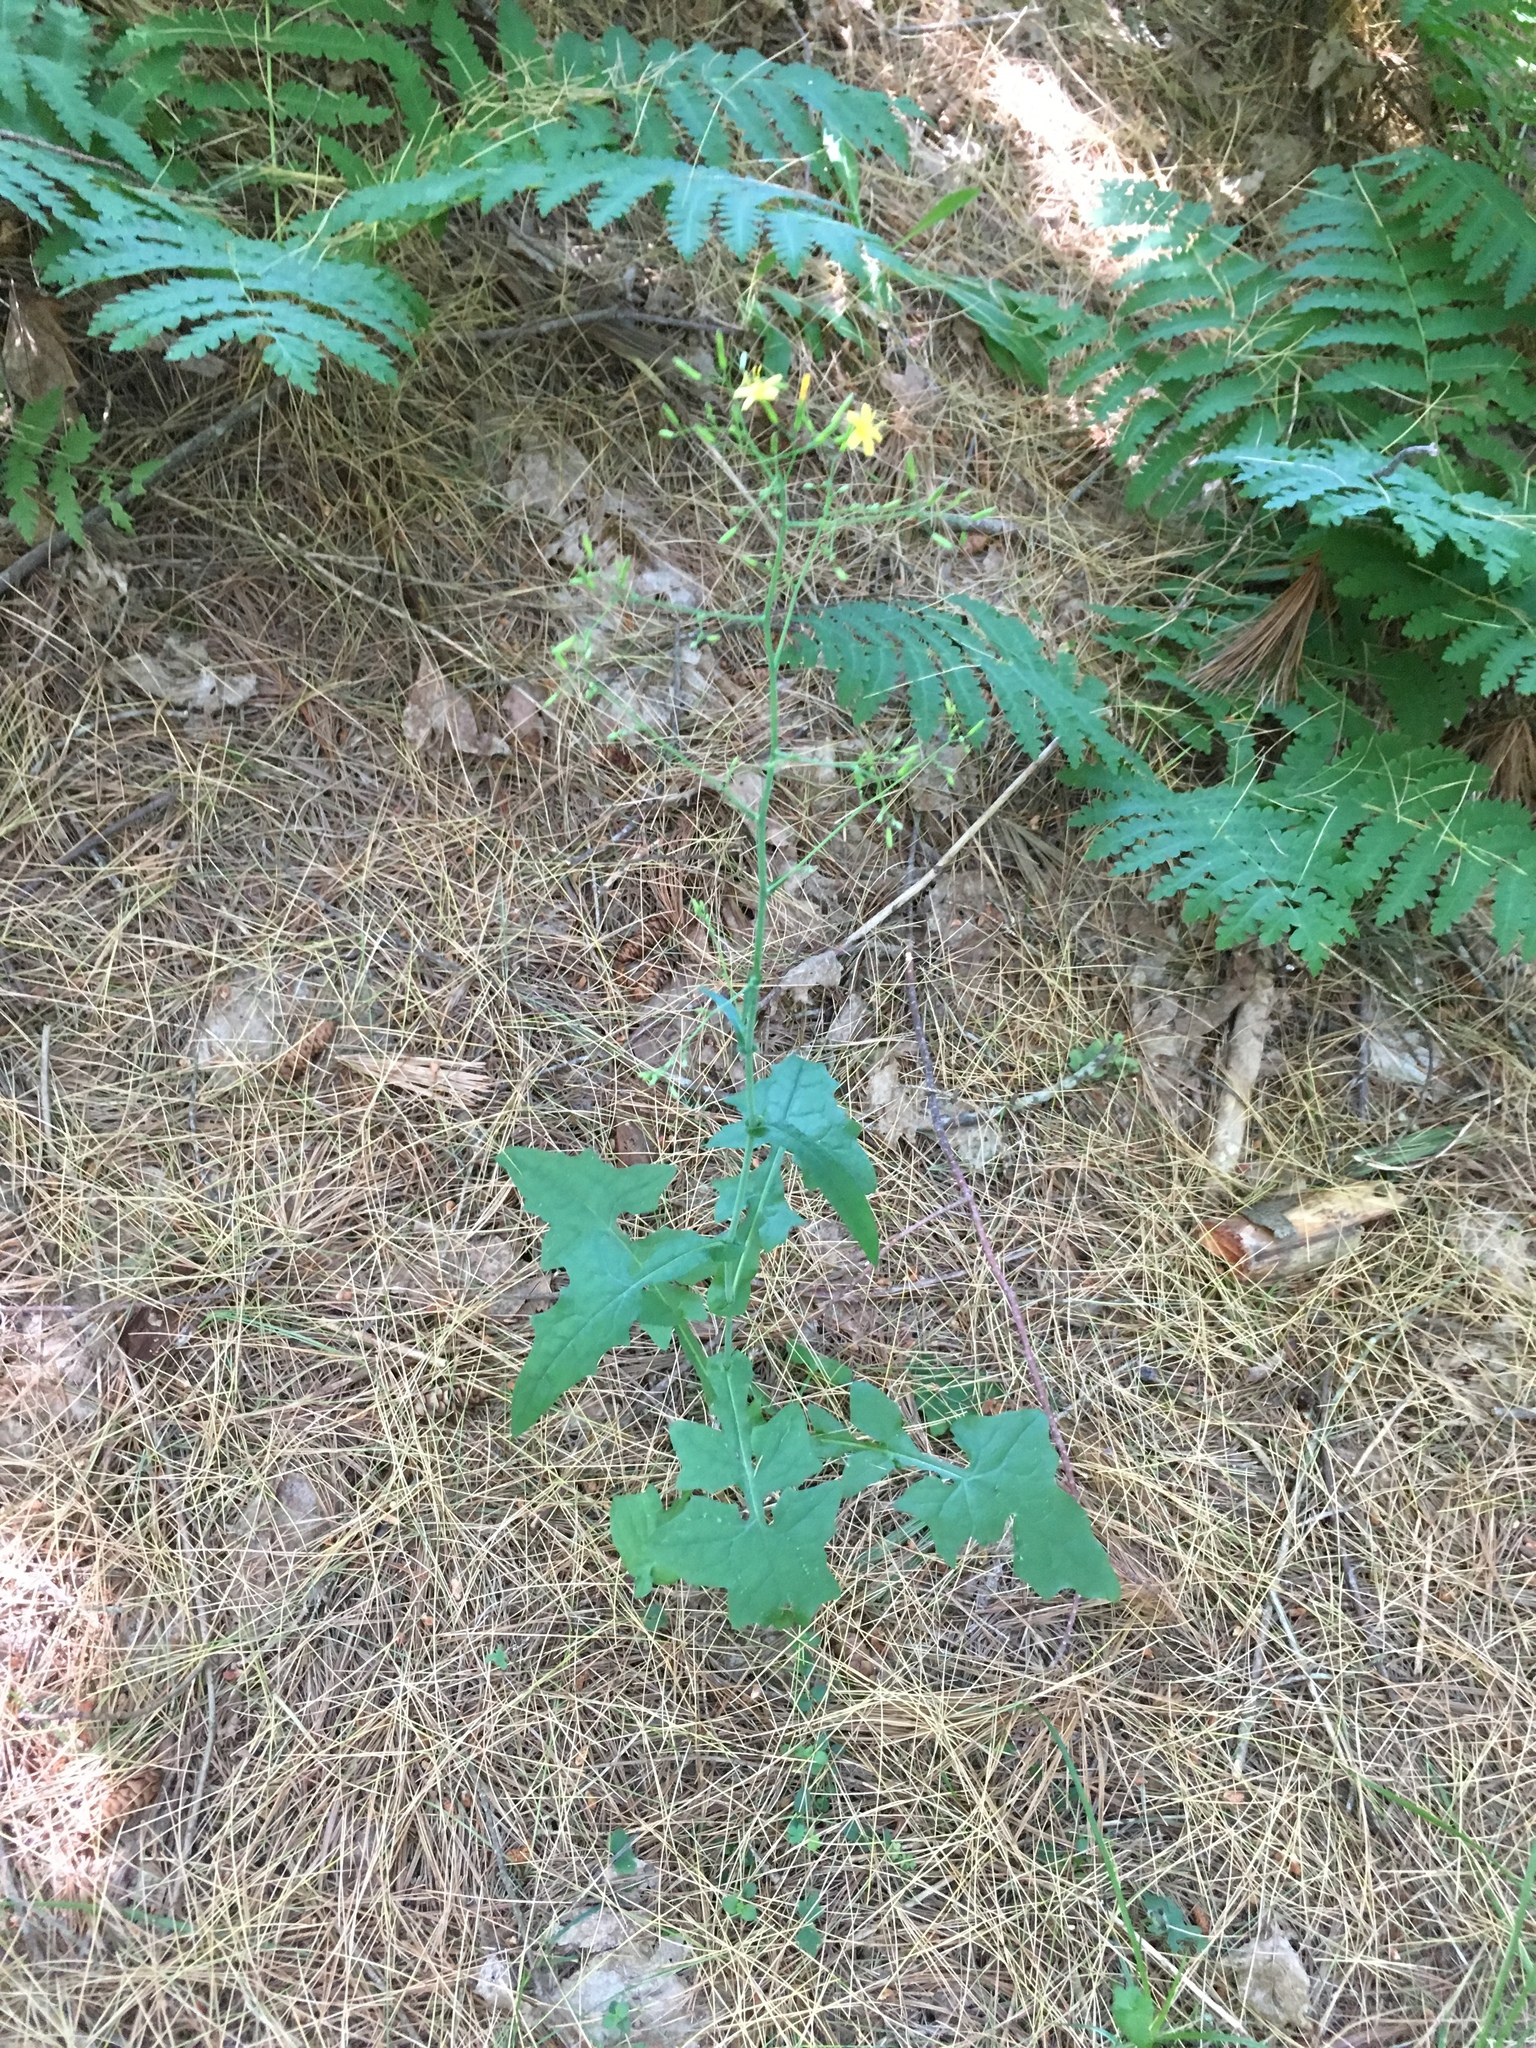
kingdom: Plantae
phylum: Tracheophyta
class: Magnoliopsida
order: Asterales
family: Asteraceae
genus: Mycelis
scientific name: Mycelis muralis
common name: Wall lettuce
